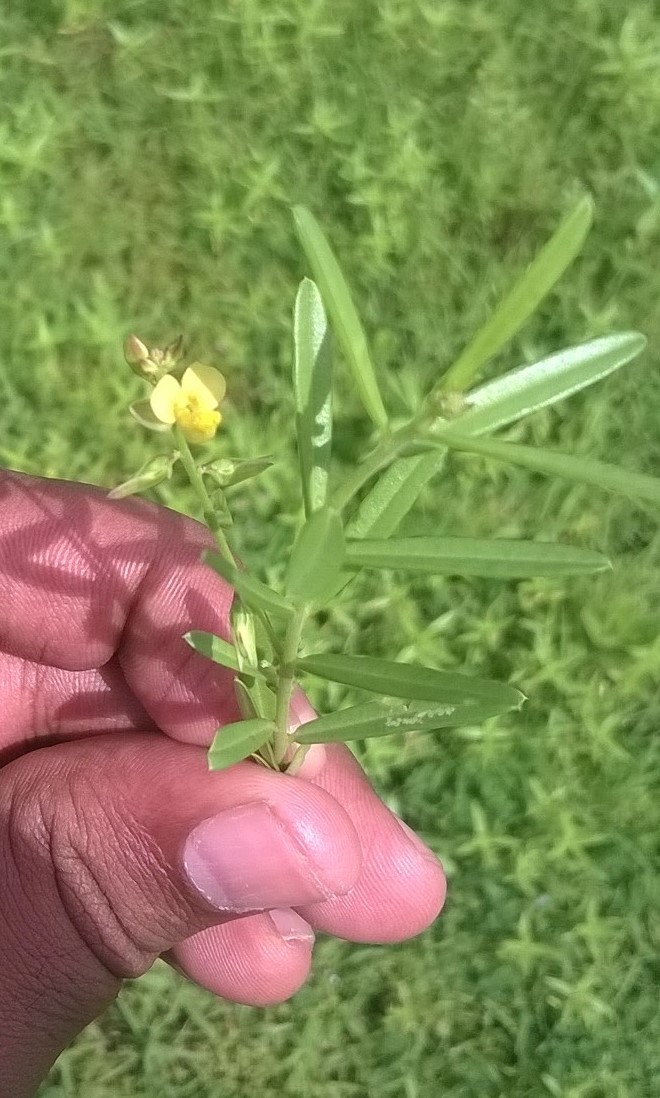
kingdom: Plantae
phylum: Tracheophyta
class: Magnoliopsida
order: Fabales
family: Polygalaceae
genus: Polygala
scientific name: Polygala
